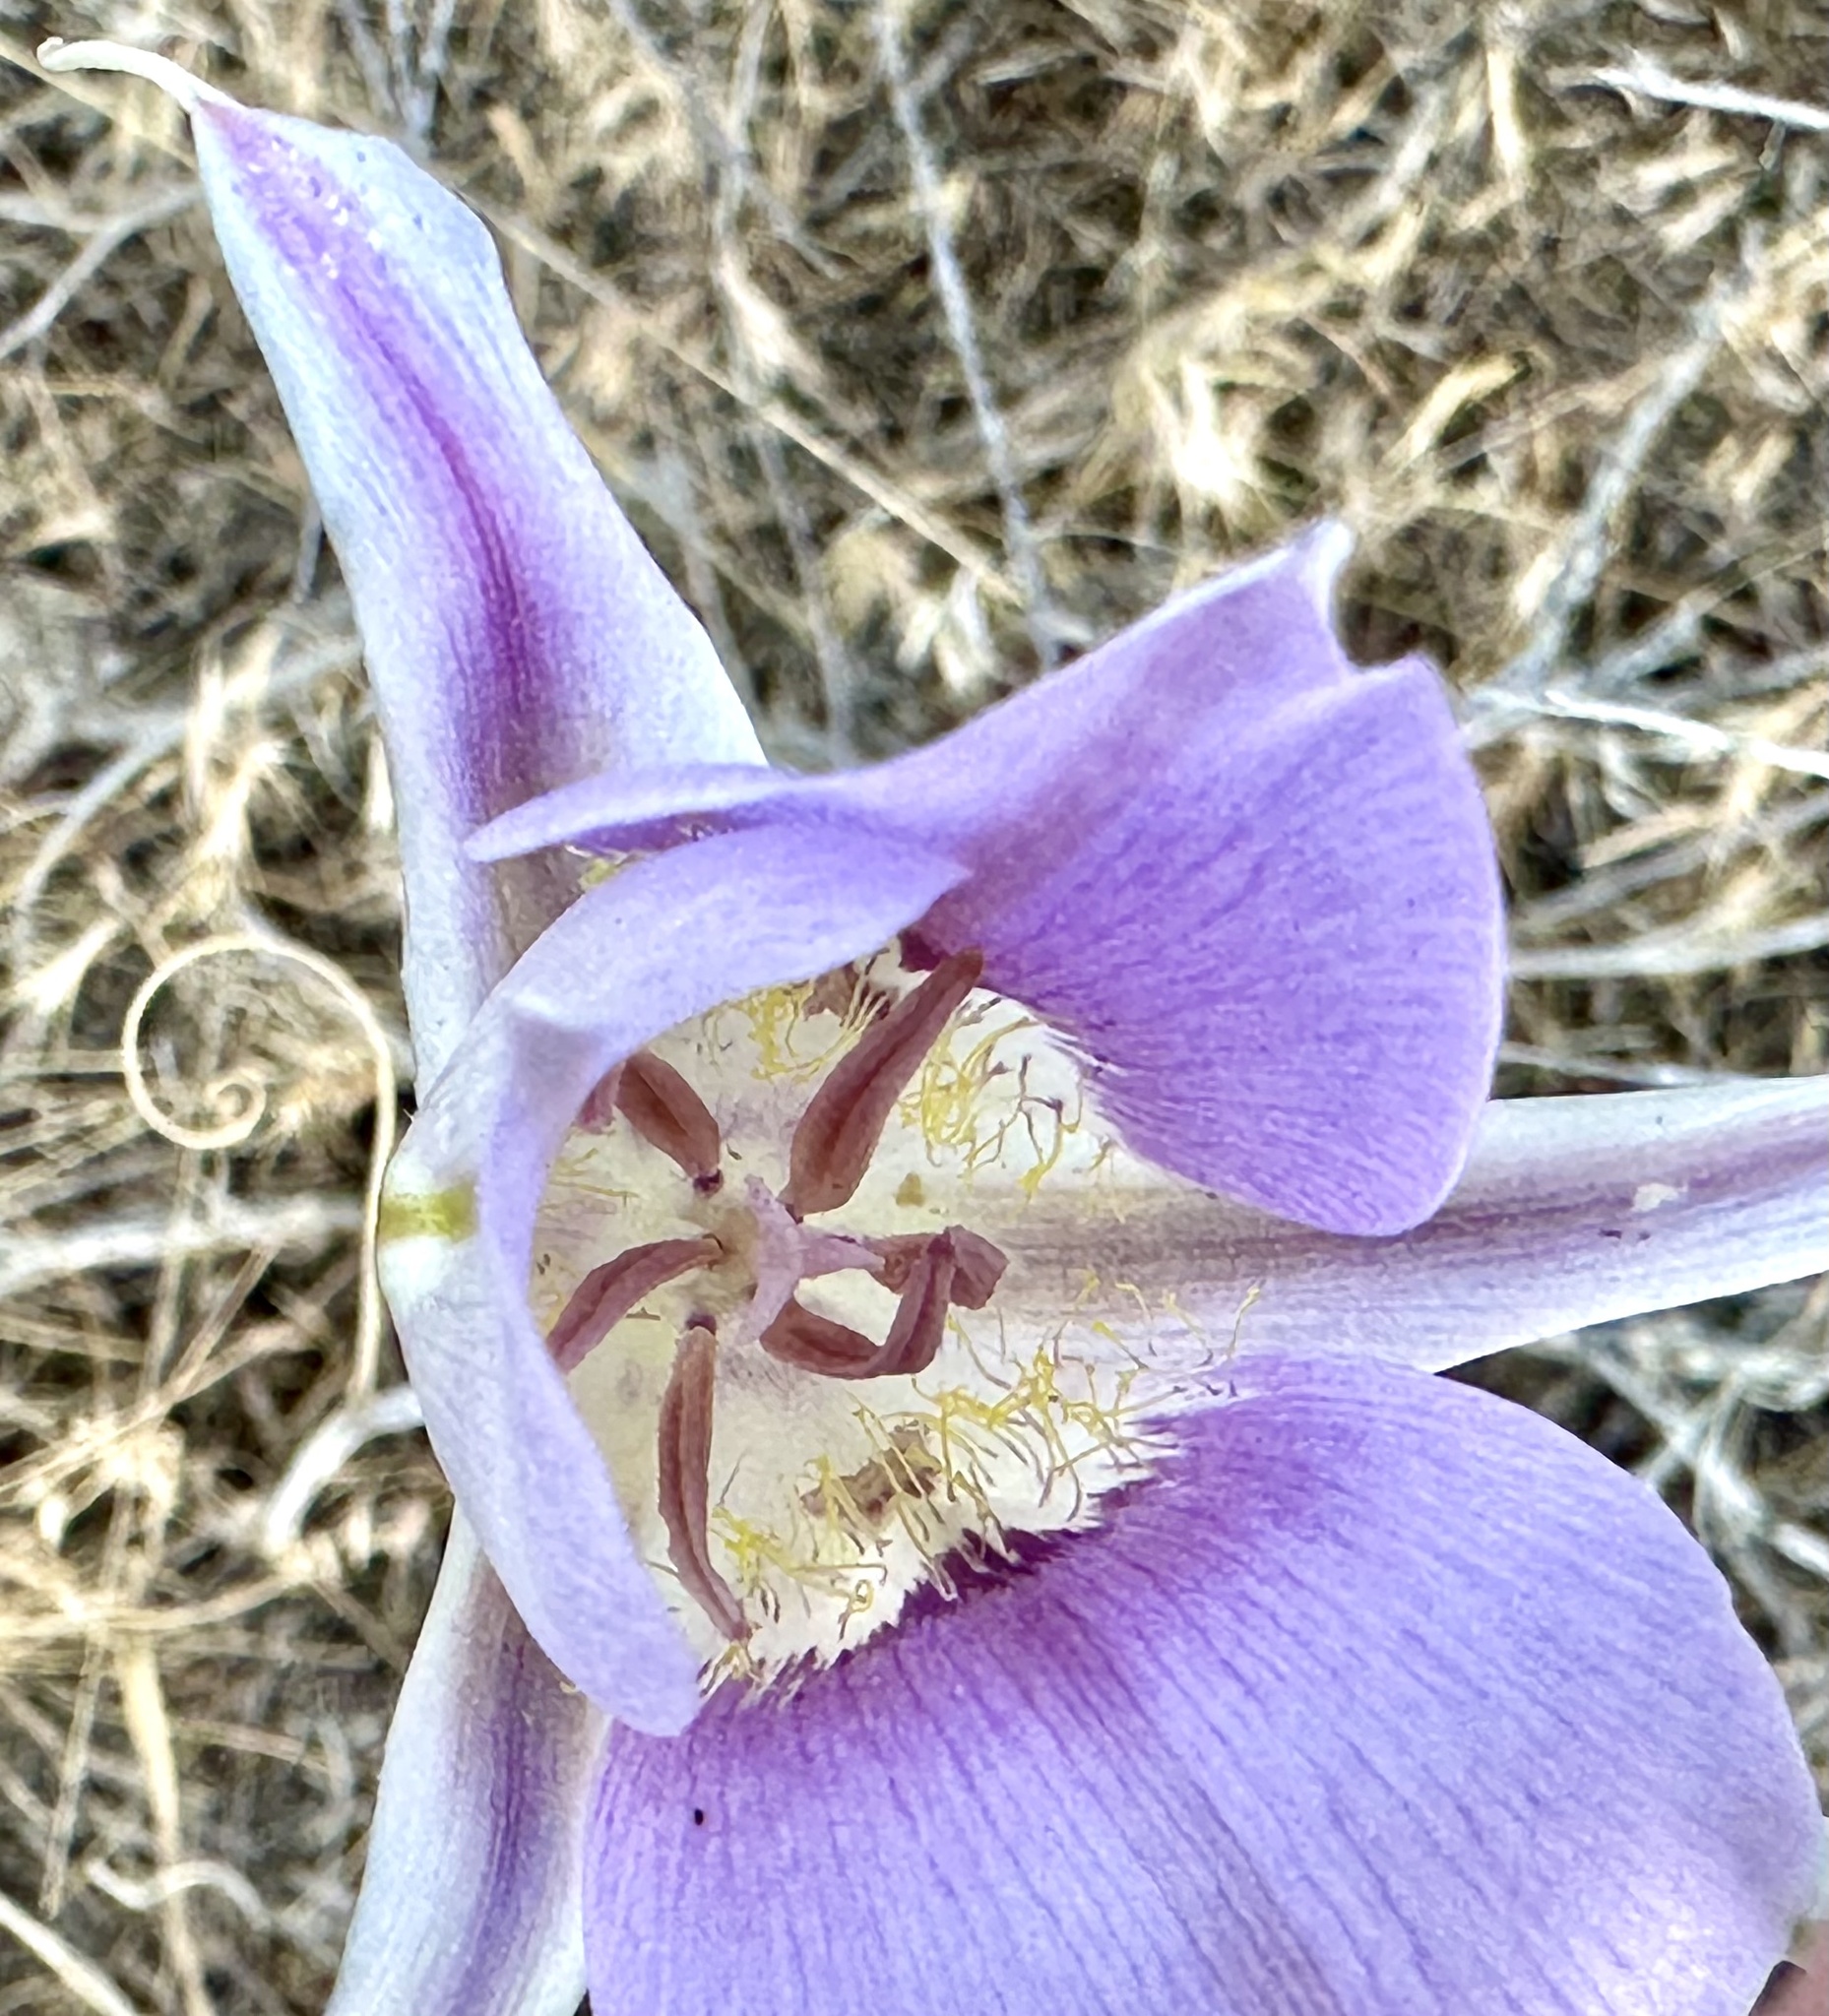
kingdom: Plantae
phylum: Tracheophyta
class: Liliopsida
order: Liliales
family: Liliaceae
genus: Calochortus
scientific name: Calochortus macrocarpus
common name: Green-band mariposa lily
